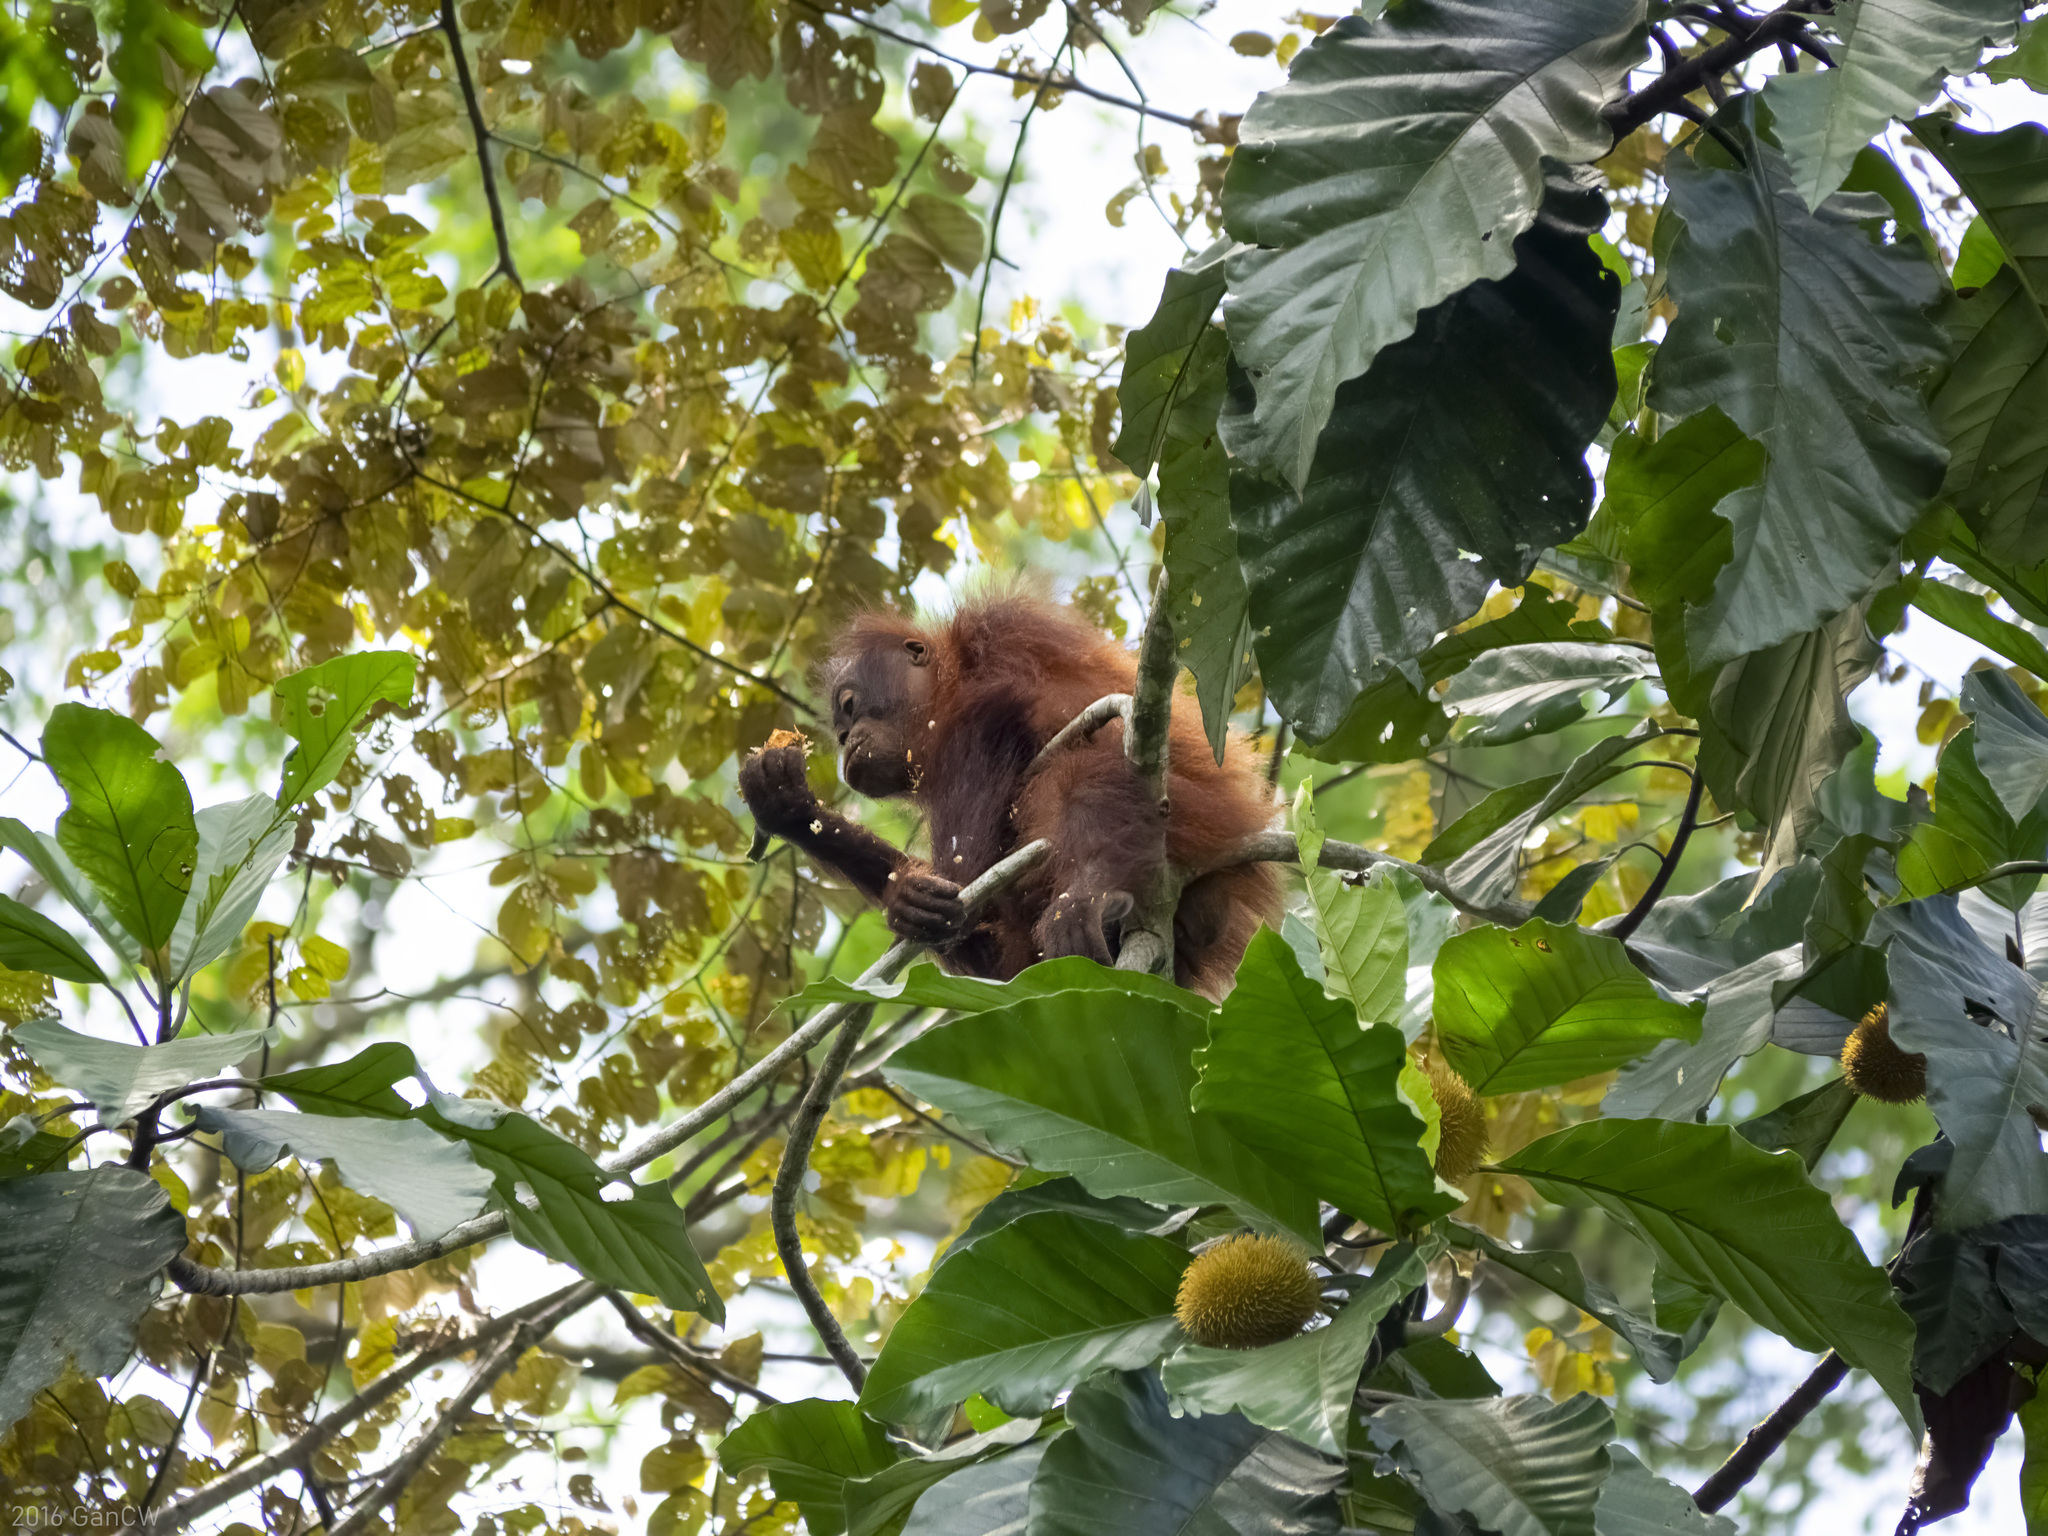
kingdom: Animalia
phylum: Chordata
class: Mammalia
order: Primates
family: Hominidae
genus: Pongo
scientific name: Pongo pygmaeus
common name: Bornean orangutan
